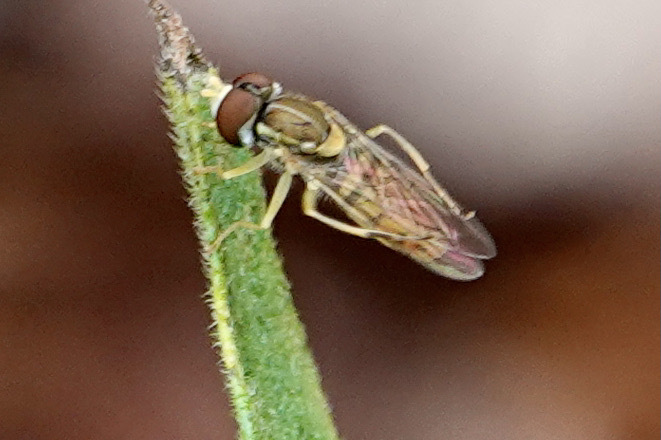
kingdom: Animalia
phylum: Arthropoda
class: Insecta
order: Diptera
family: Syrphidae
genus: Toxomerus
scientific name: Toxomerus marginatus
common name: Syrphid fly
